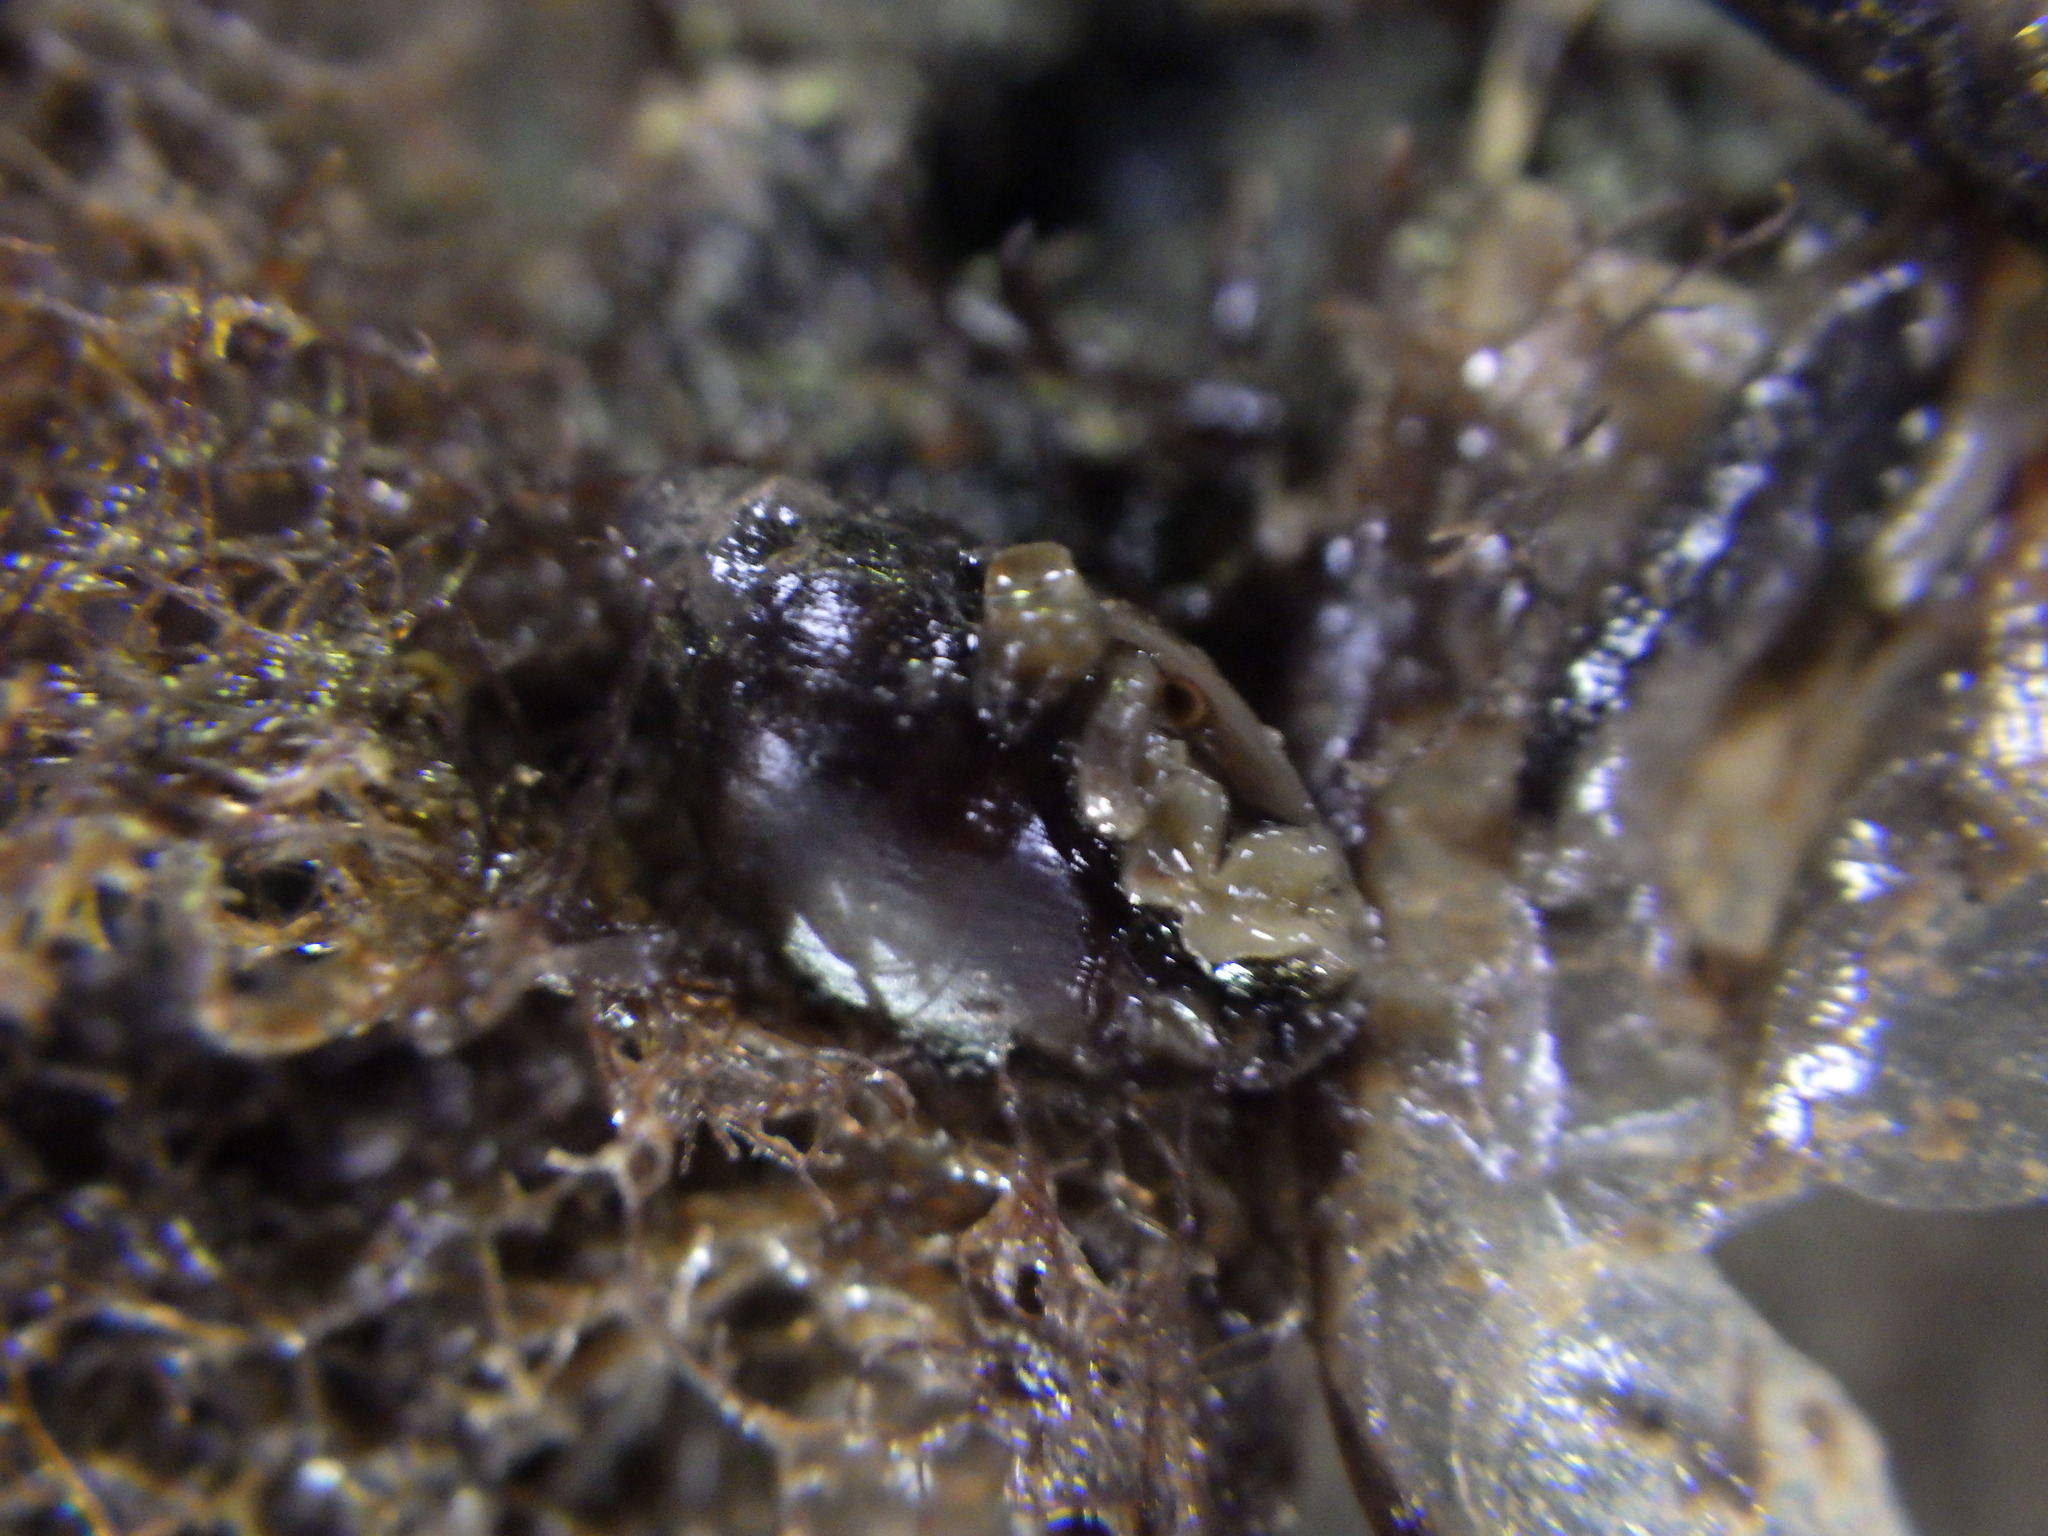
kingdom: Animalia
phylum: Mollusca
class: Gastropoda
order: Ellobiida
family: Ellobiidae
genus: Pleuroloba
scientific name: Pleuroloba costellaris
